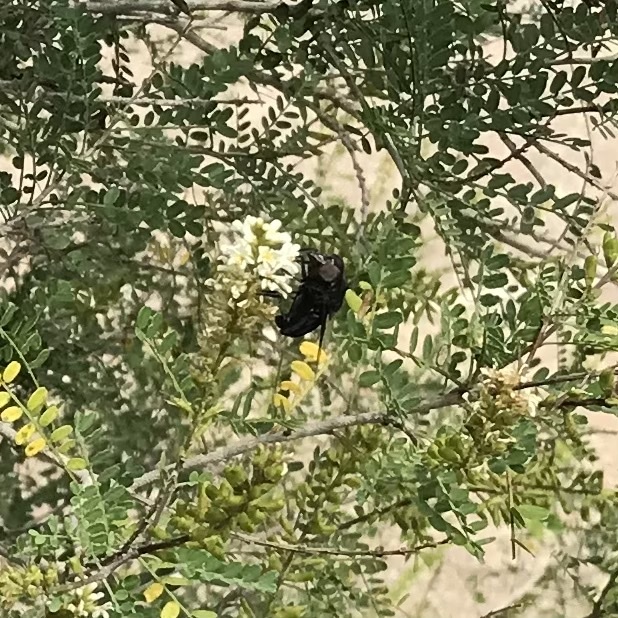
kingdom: Animalia
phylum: Arthropoda
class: Insecta
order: Diptera
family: Syrphidae
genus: Copestylum
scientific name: Copestylum mexicanum
